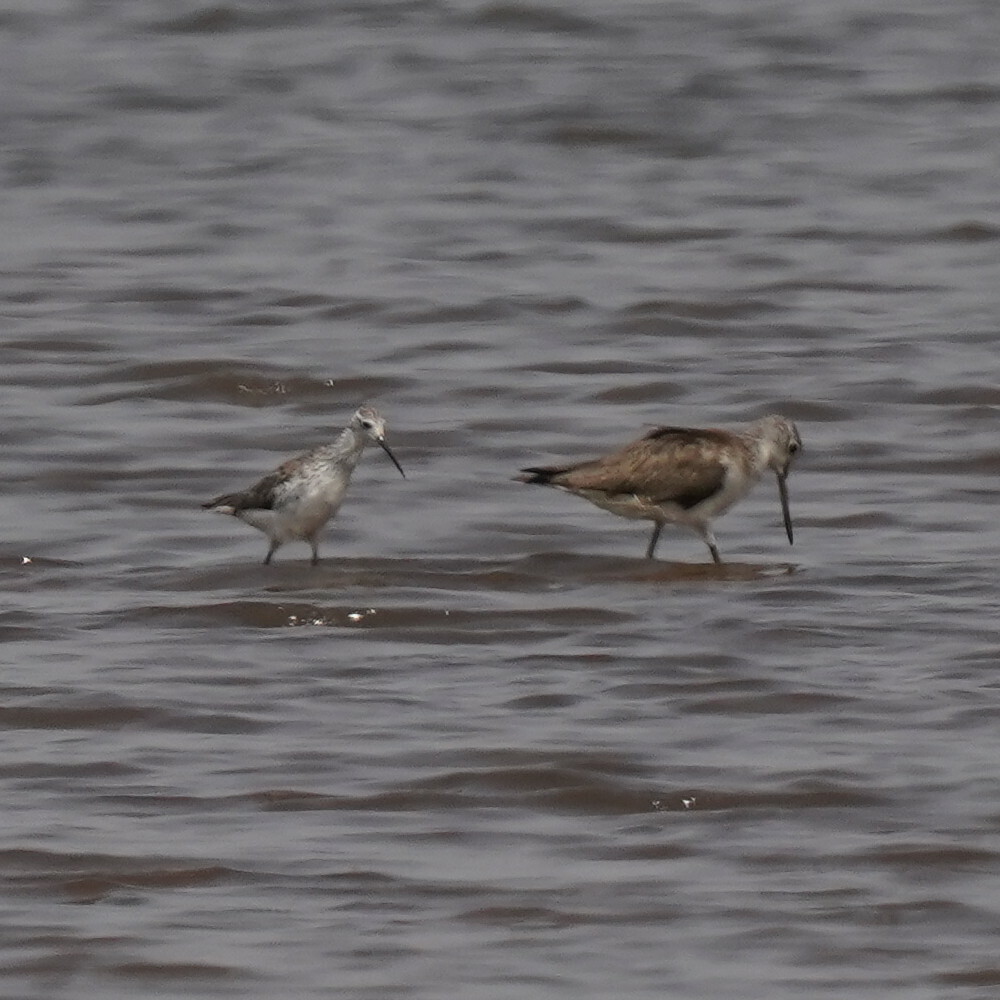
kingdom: Animalia
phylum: Chordata
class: Aves
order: Charadriiformes
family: Scolopacidae
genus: Tringa
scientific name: Tringa nebularia
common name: Common greenshank
